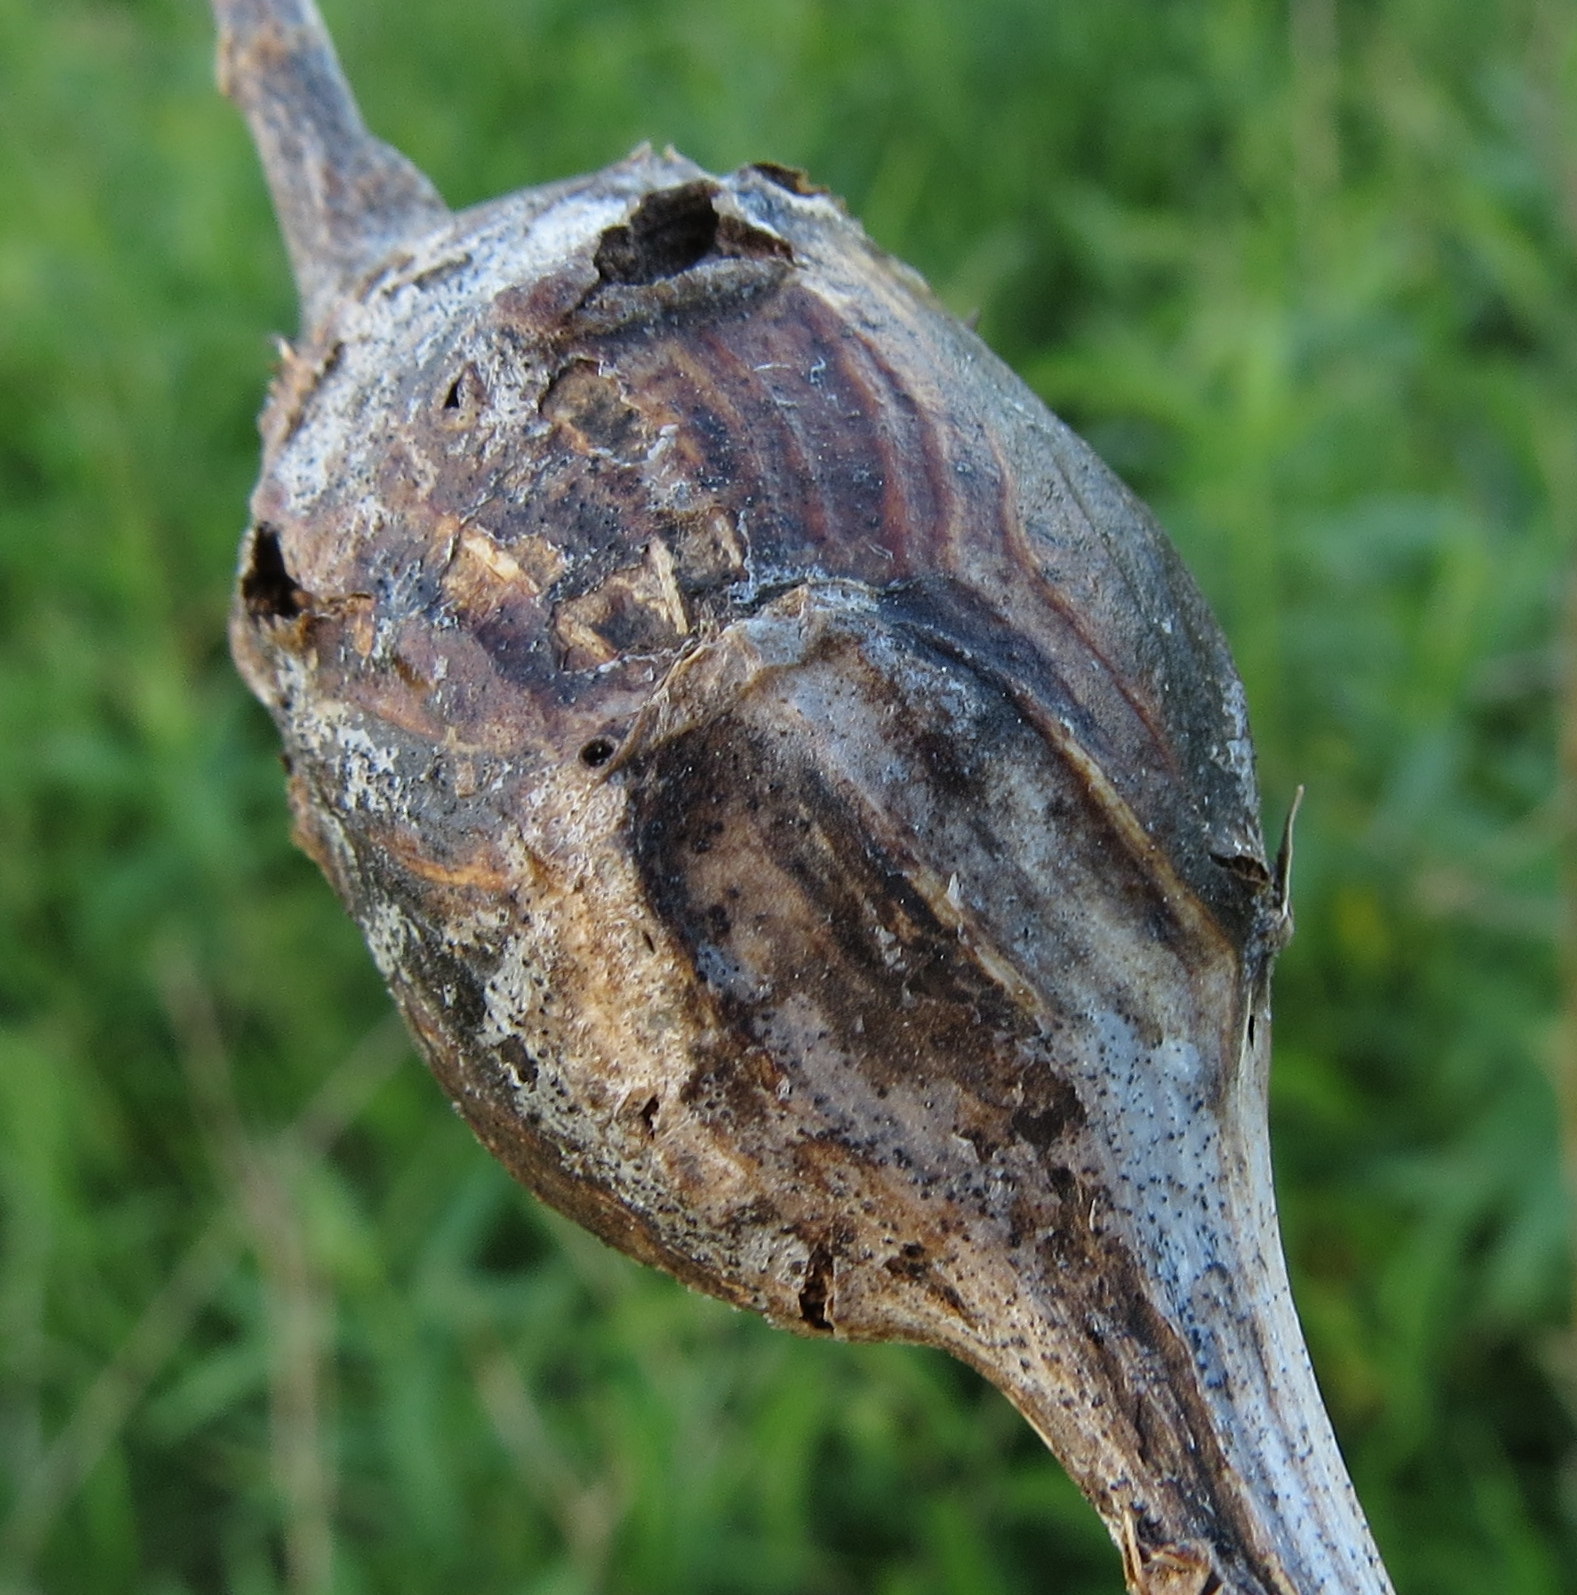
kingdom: Animalia
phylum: Arthropoda
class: Insecta
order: Diptera
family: Tephritidae
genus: Eurosta
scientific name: Eurosta solidaginis
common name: Goldenrod gall fly
